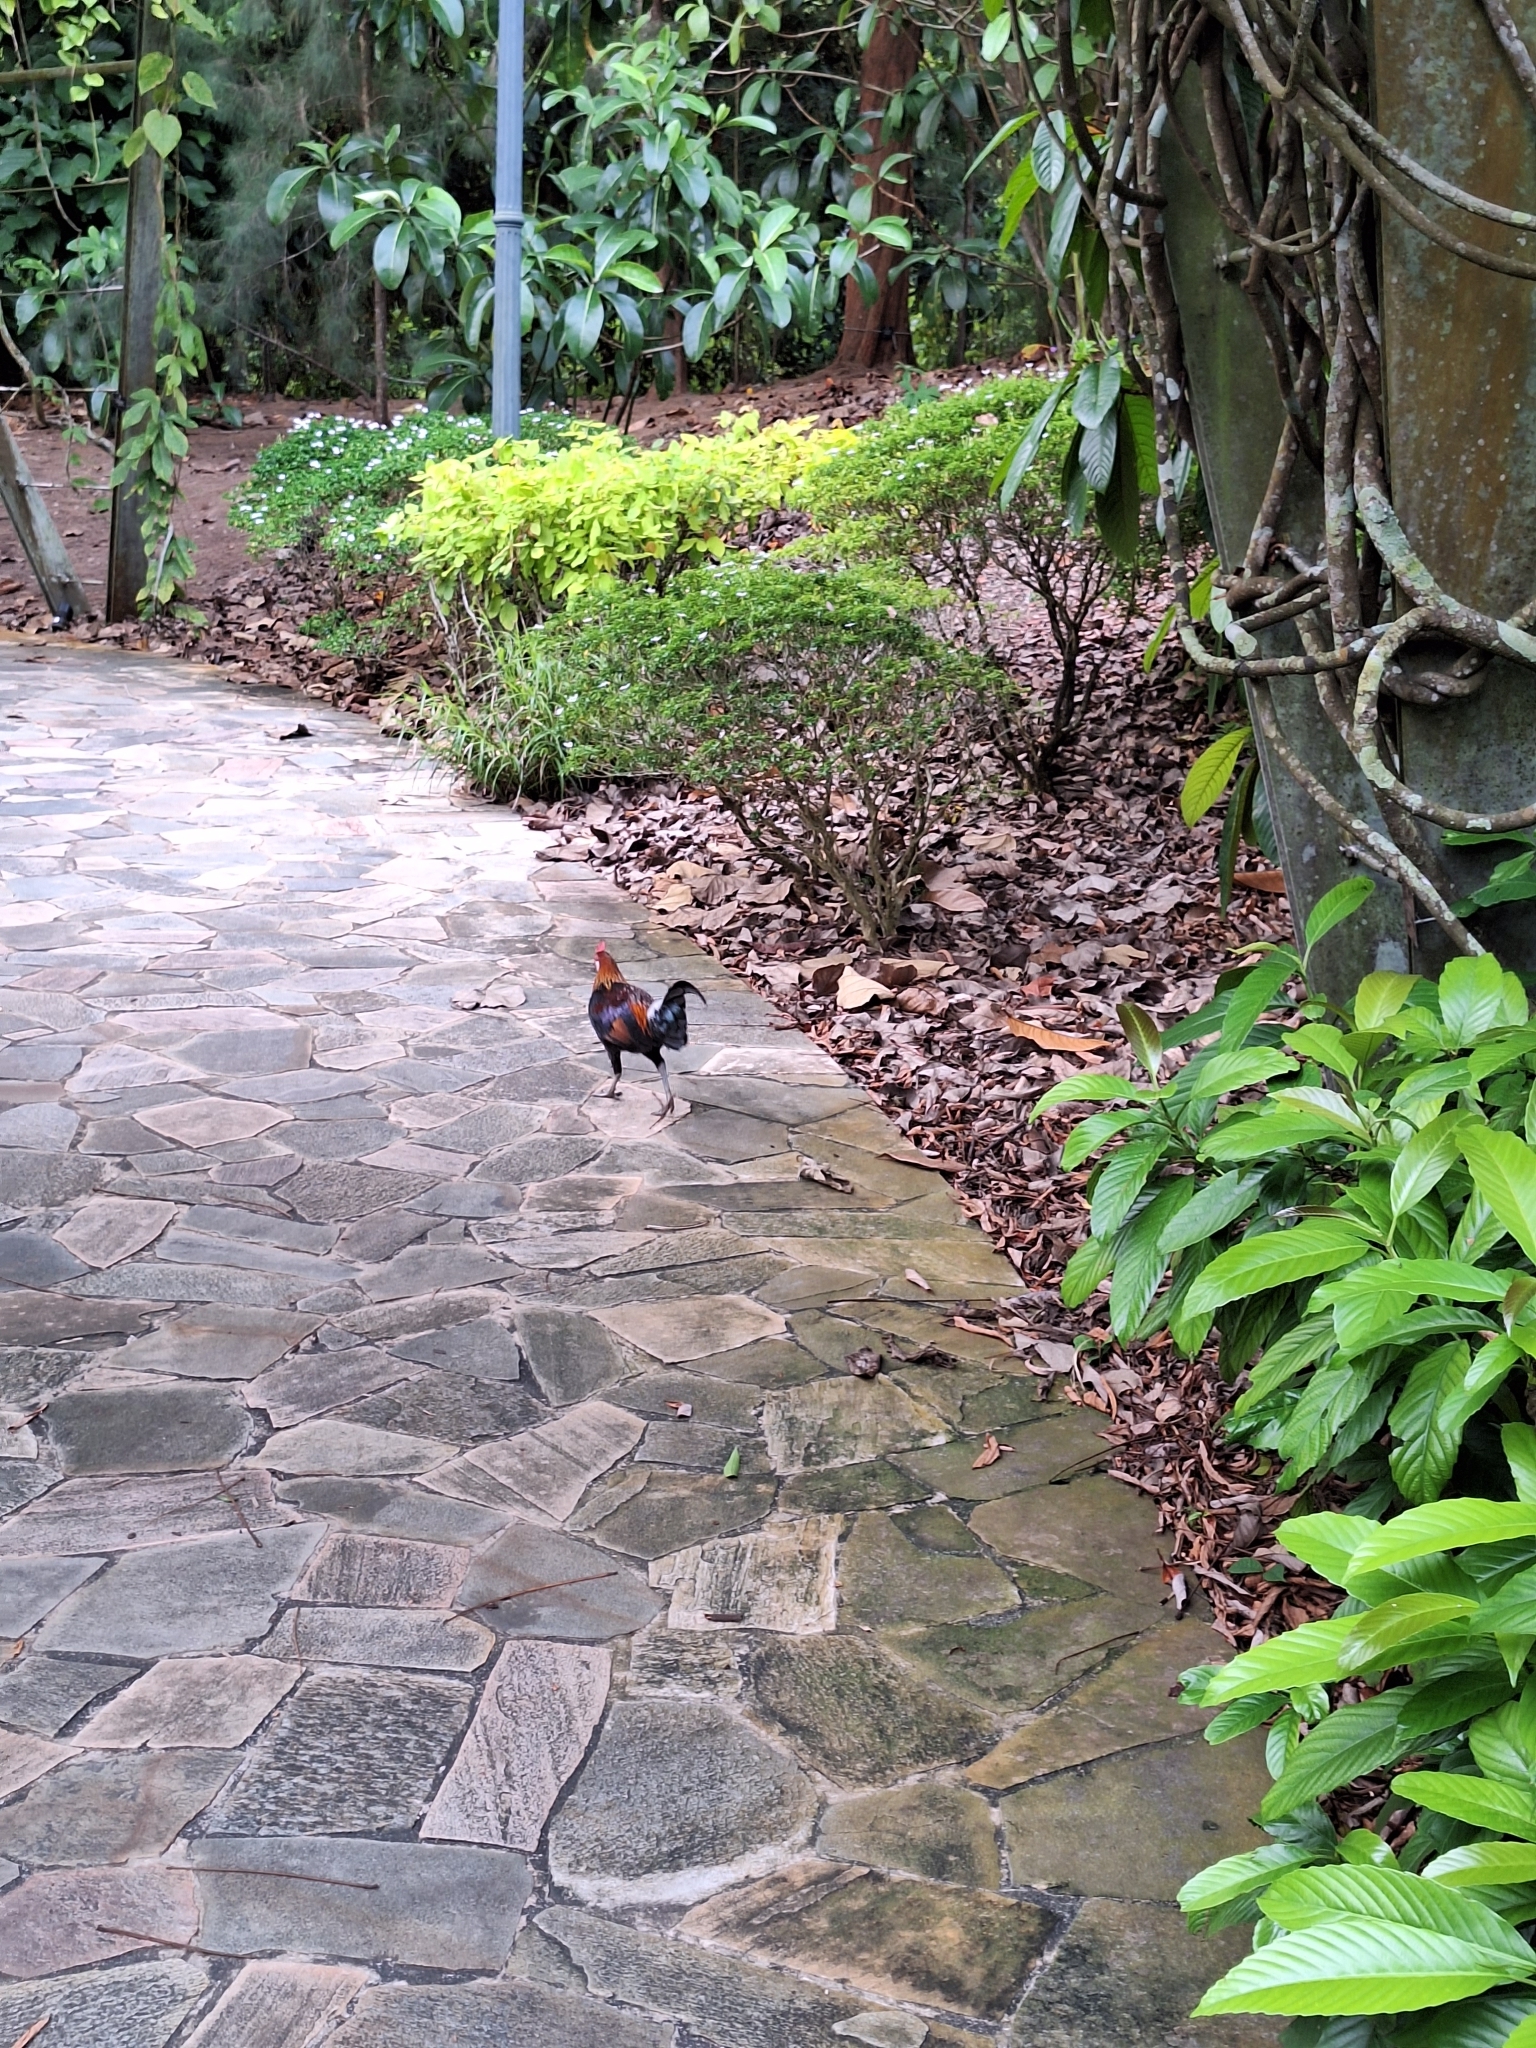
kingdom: Animalia
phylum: Chordata
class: Aves
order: Galliformes
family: Phasianidae
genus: Gallus
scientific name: Gallus gallus
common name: Red junglefowl
